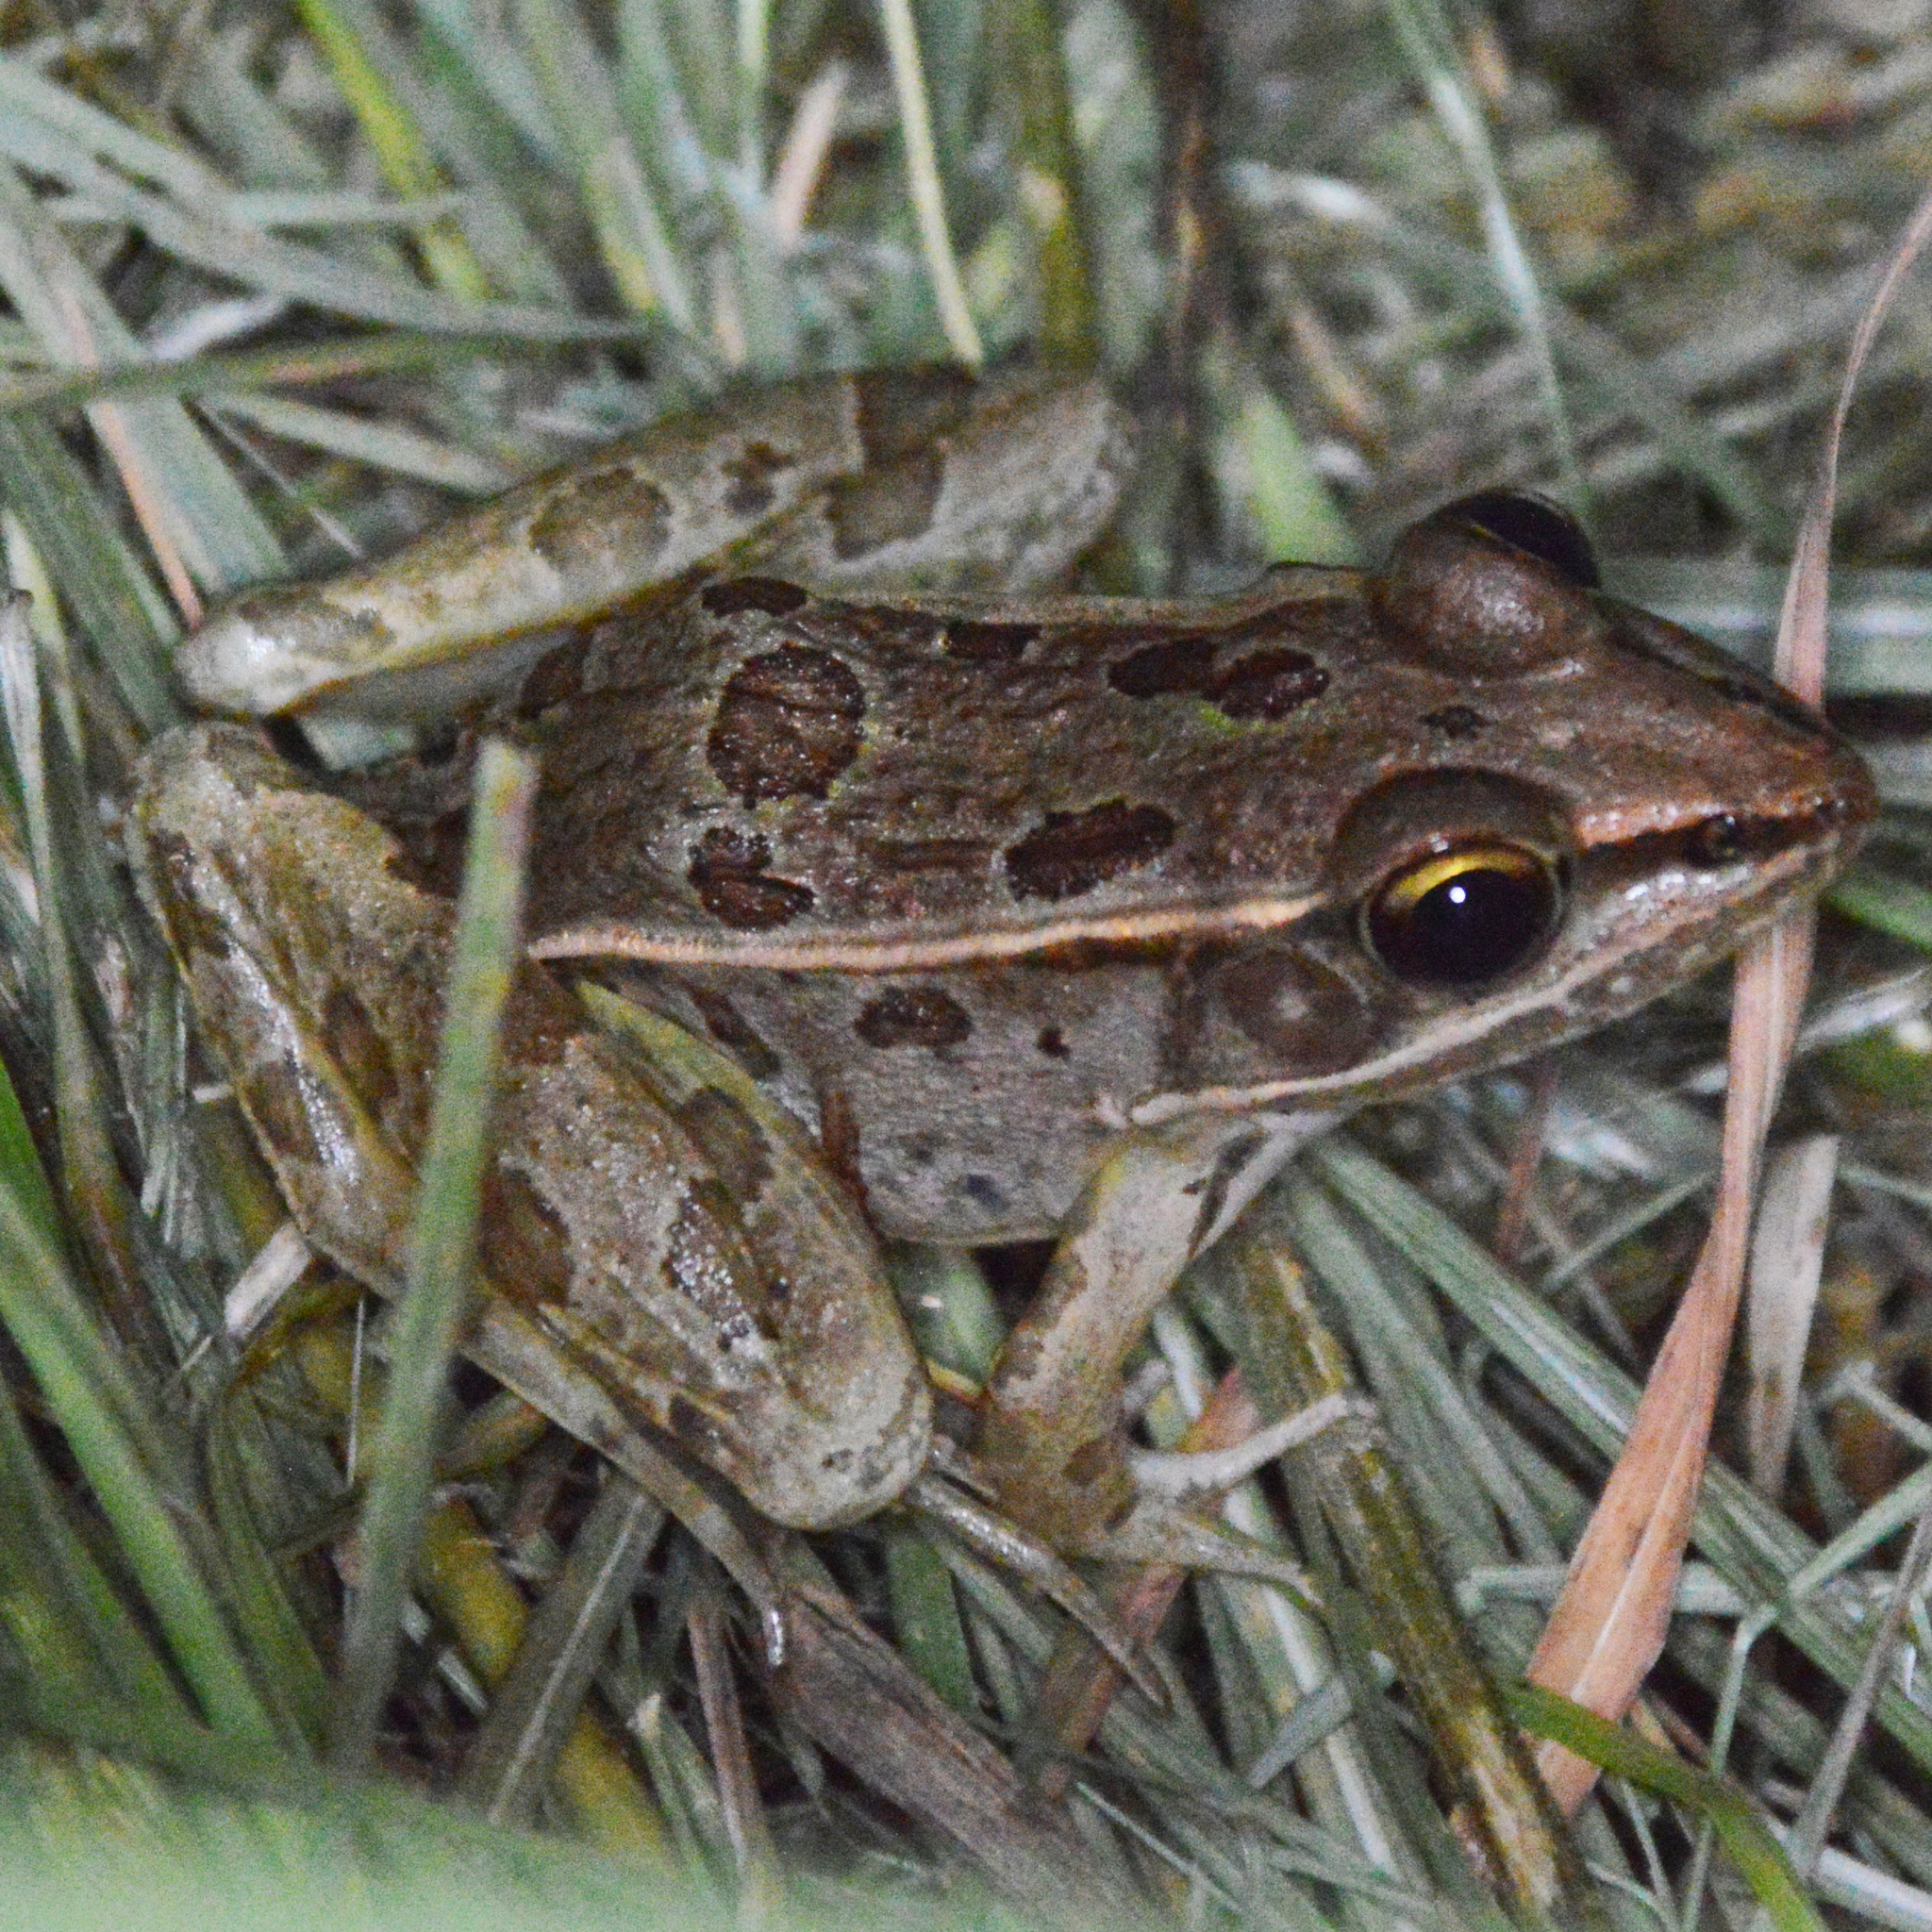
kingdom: Animalia
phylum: Chordata
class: Amphibia
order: Anura
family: Ranidae
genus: Lithobates
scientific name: Lithobates sphenocephalus
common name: Southern leopard frog
